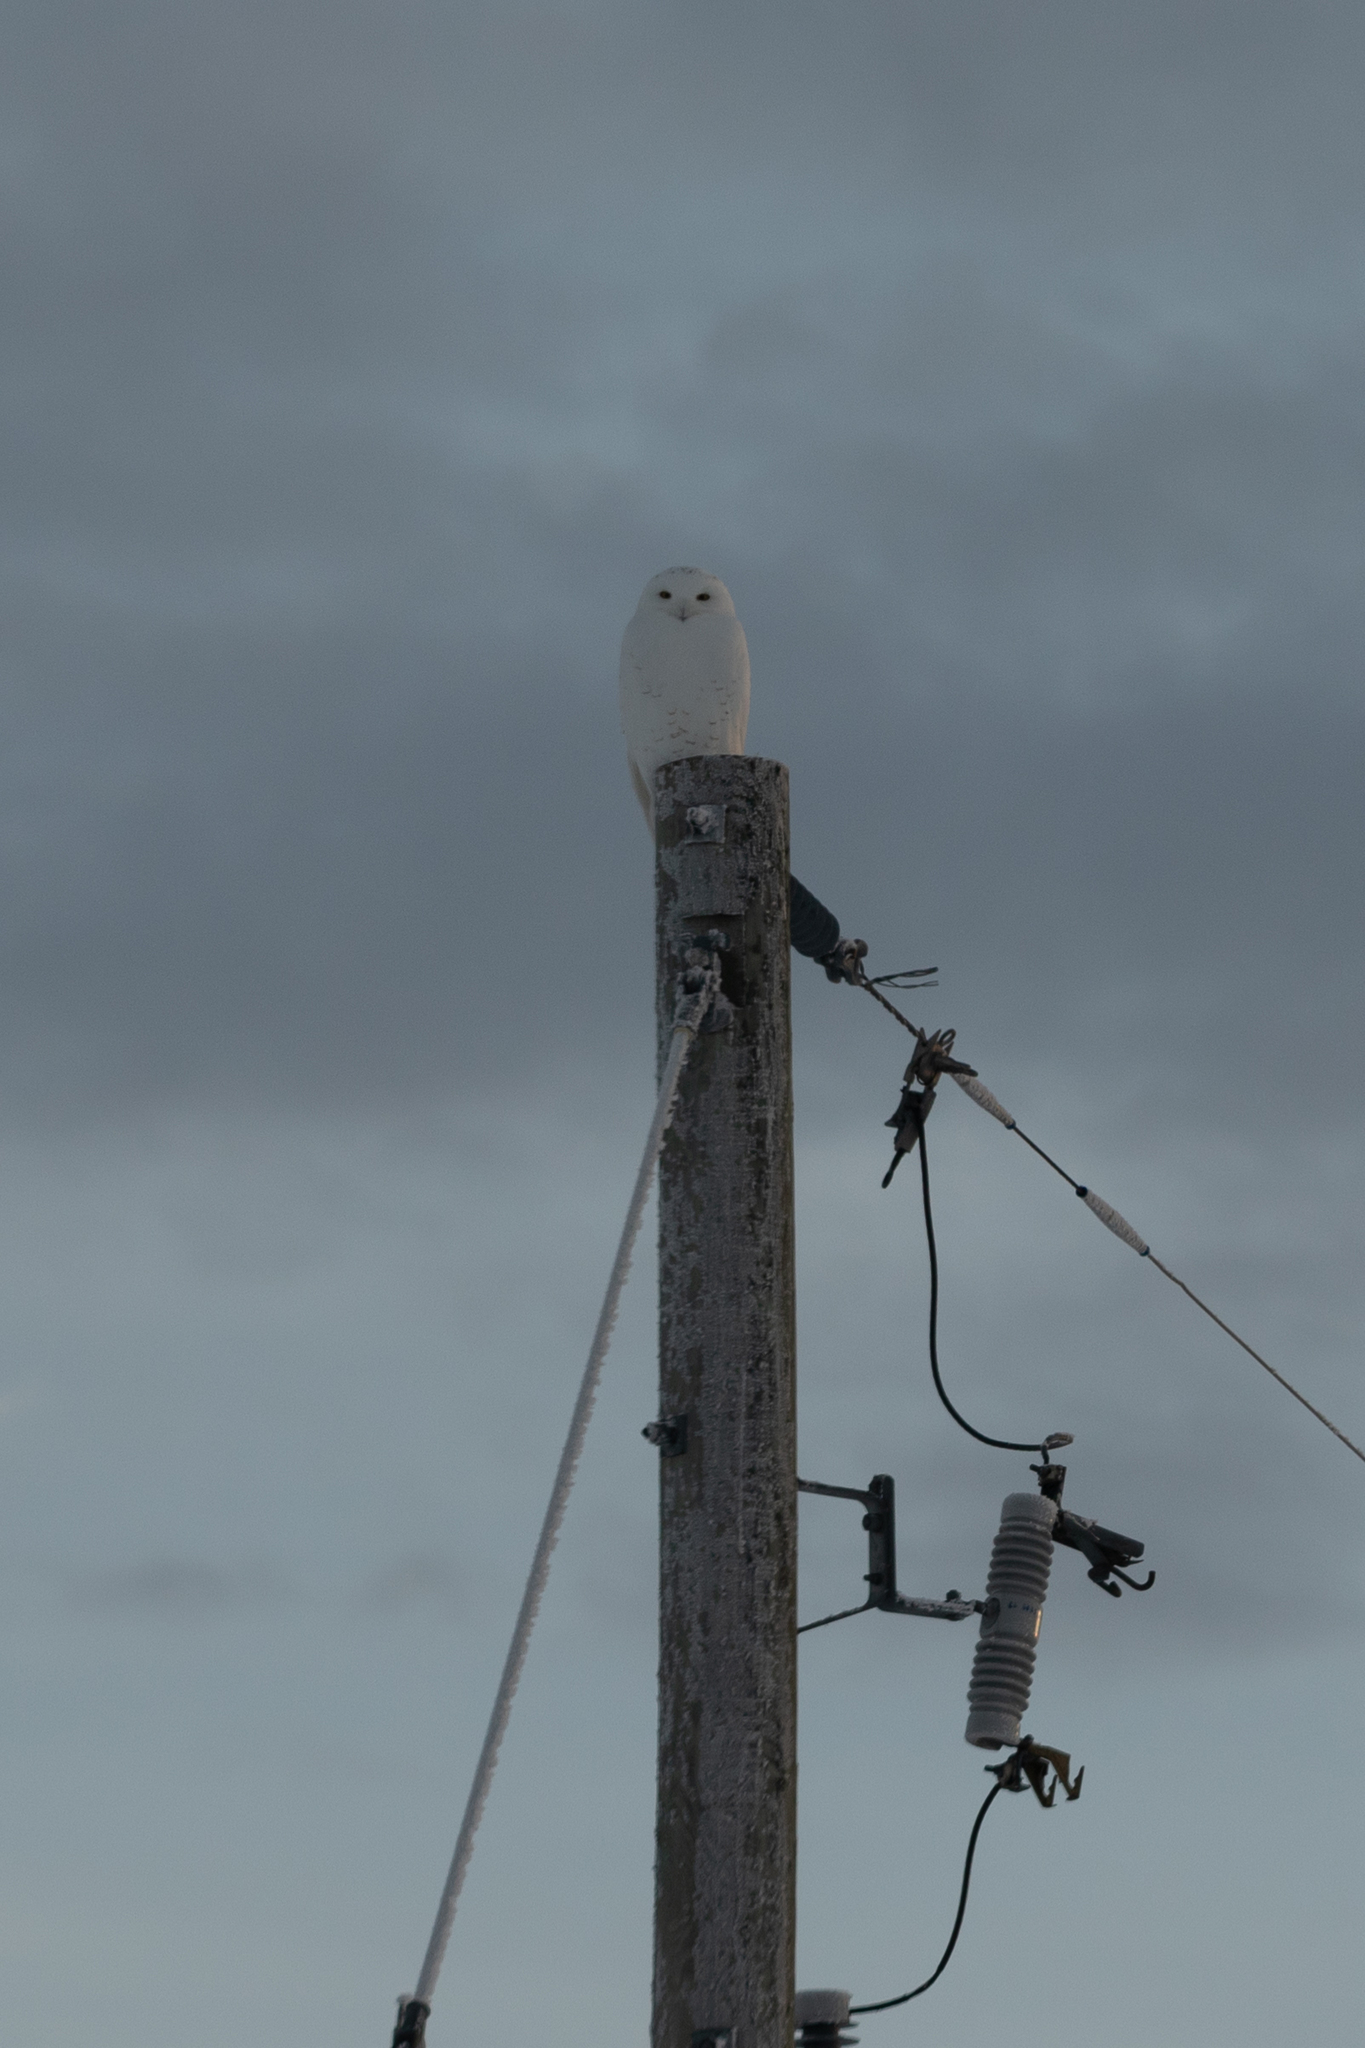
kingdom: Animalia
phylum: Chordata
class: Aves
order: Strigiformes
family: Strigidae
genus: Bubo
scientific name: Bubo scandiacus
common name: Snowy owl
